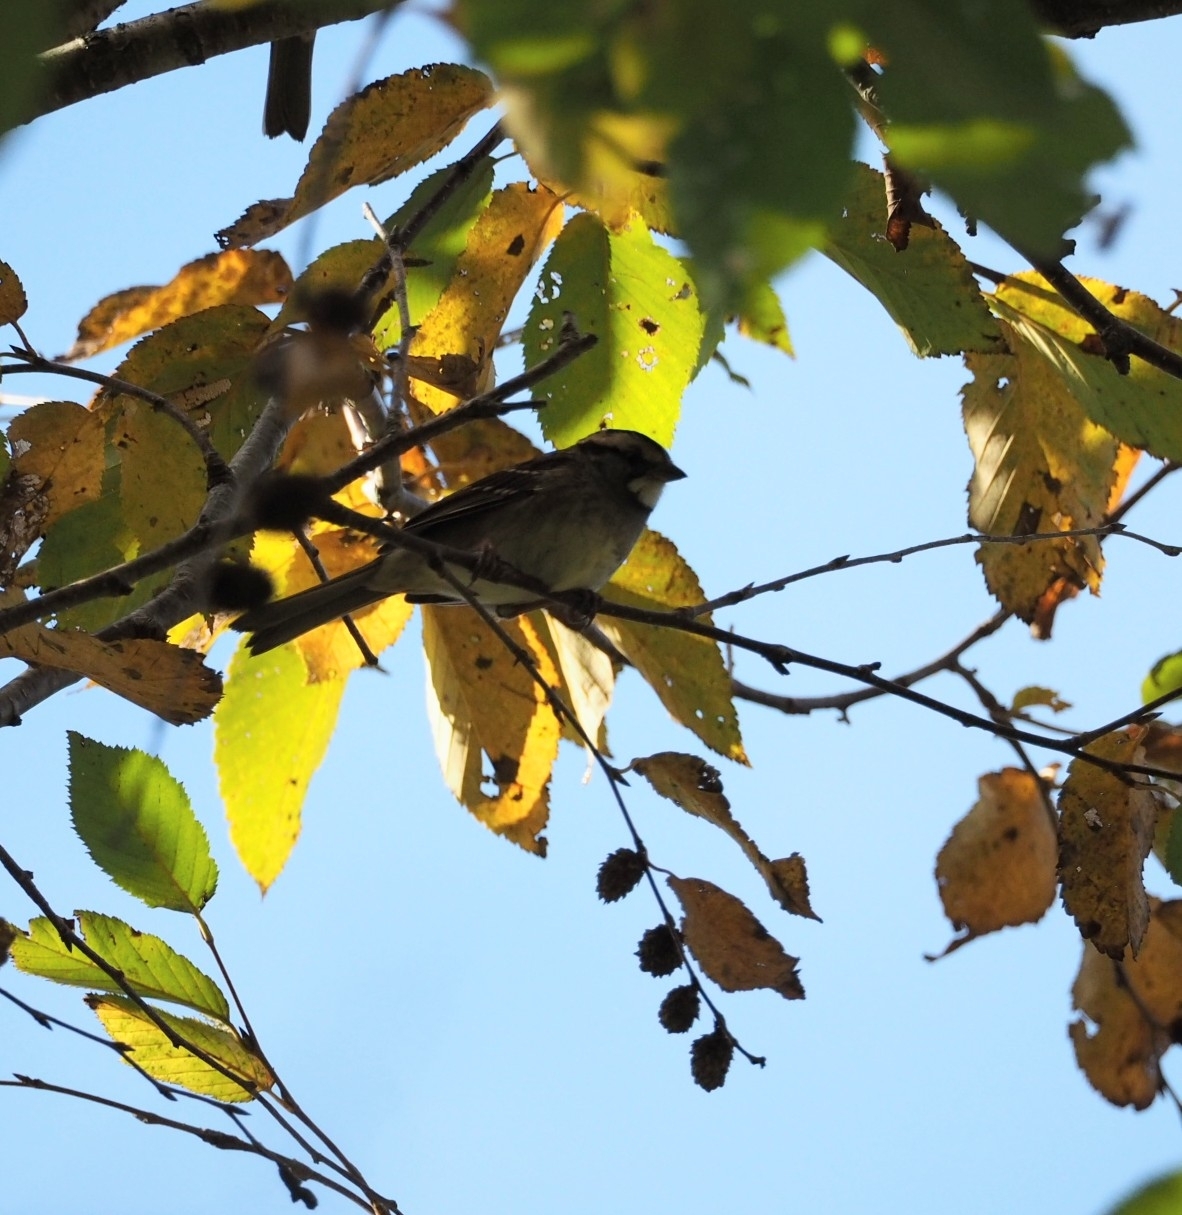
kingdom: Animalia
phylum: Chordata
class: Aves
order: Passeriformes
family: Passerellidae
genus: Zonotrichia
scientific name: Zonotrichia albicollis
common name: White-throated sparrow
